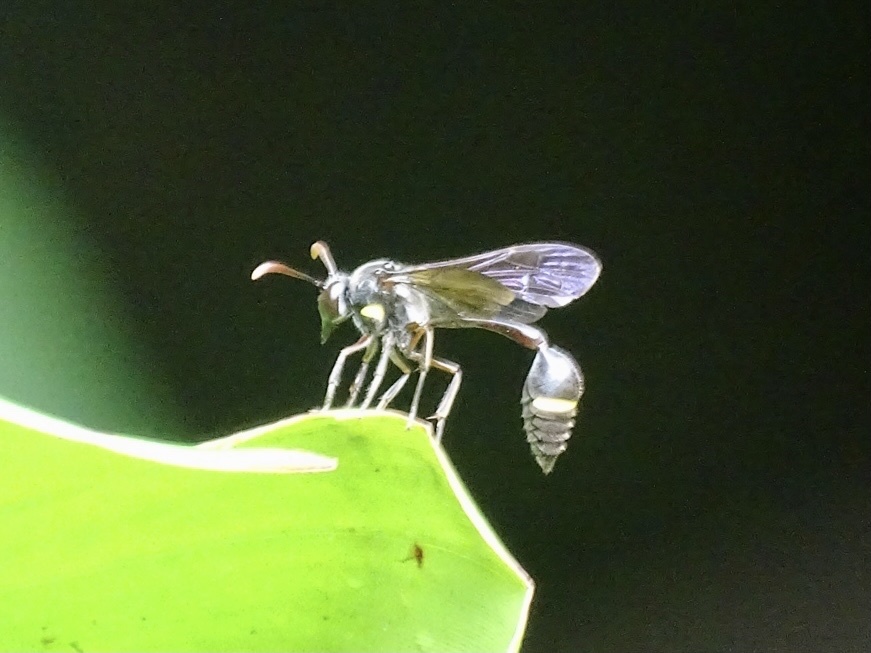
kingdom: Animalia
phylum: Arthropoda
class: Insecta
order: Hymenoptera
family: Vespidae
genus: Eustenogaster
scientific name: Eustenogaster nigra
